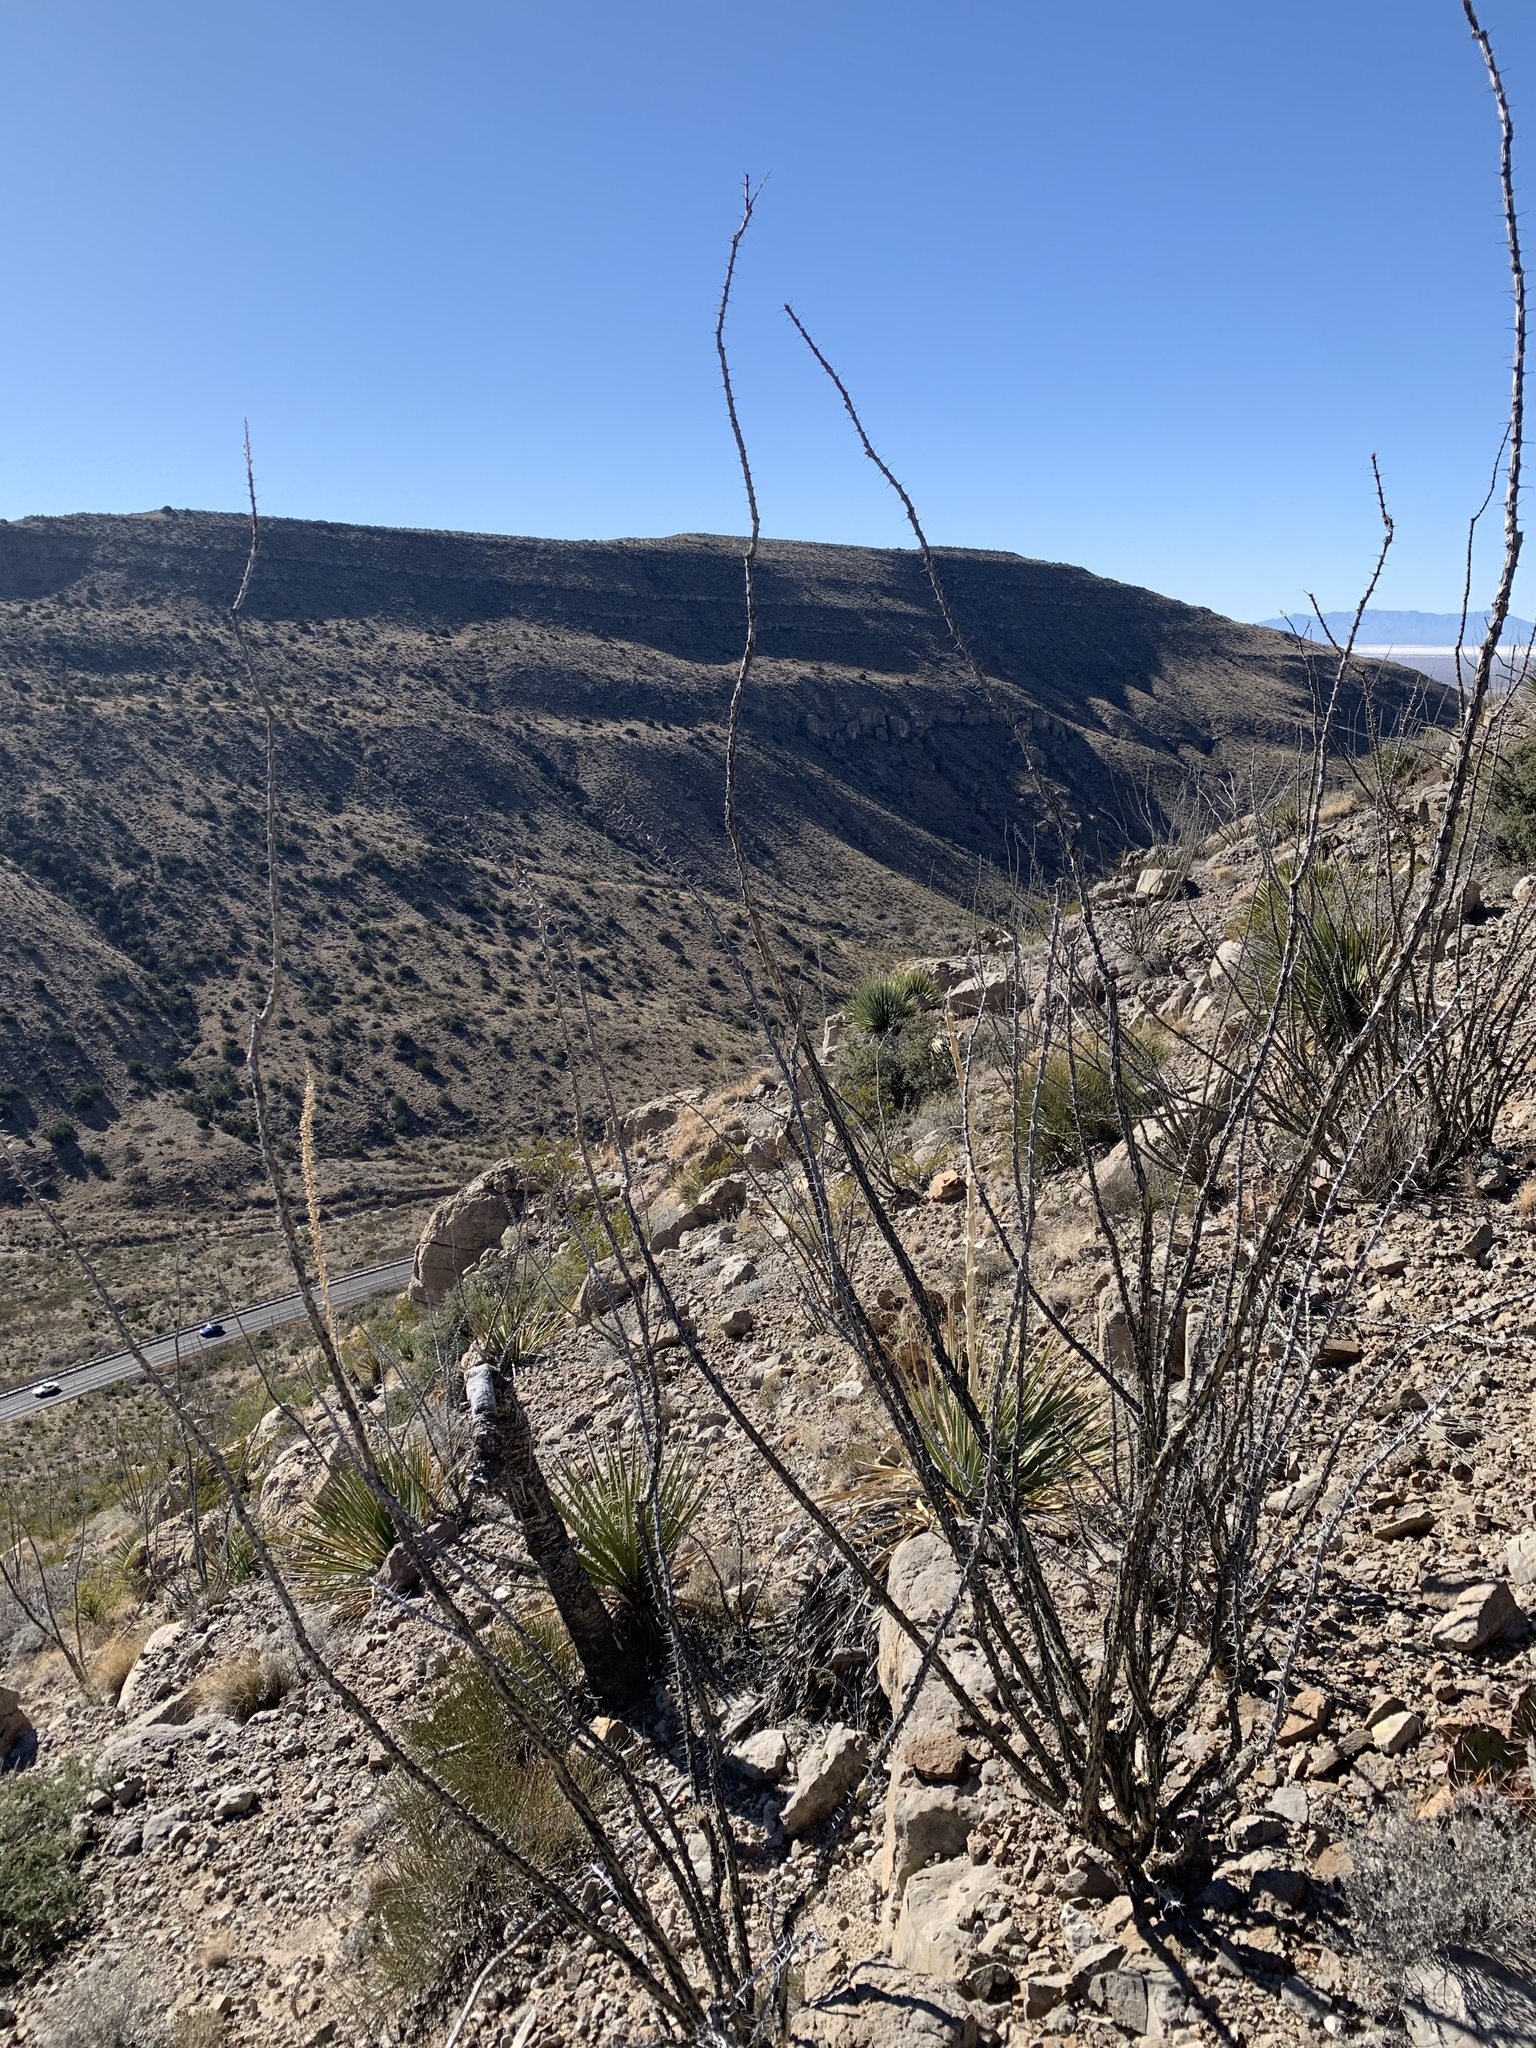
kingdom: Plantae
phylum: Tracheophyta
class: Magnoliopsida
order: Ericales
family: Fouquieriaceae
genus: Fouquieria
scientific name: Fouquieria splendens
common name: Vine-cactus
